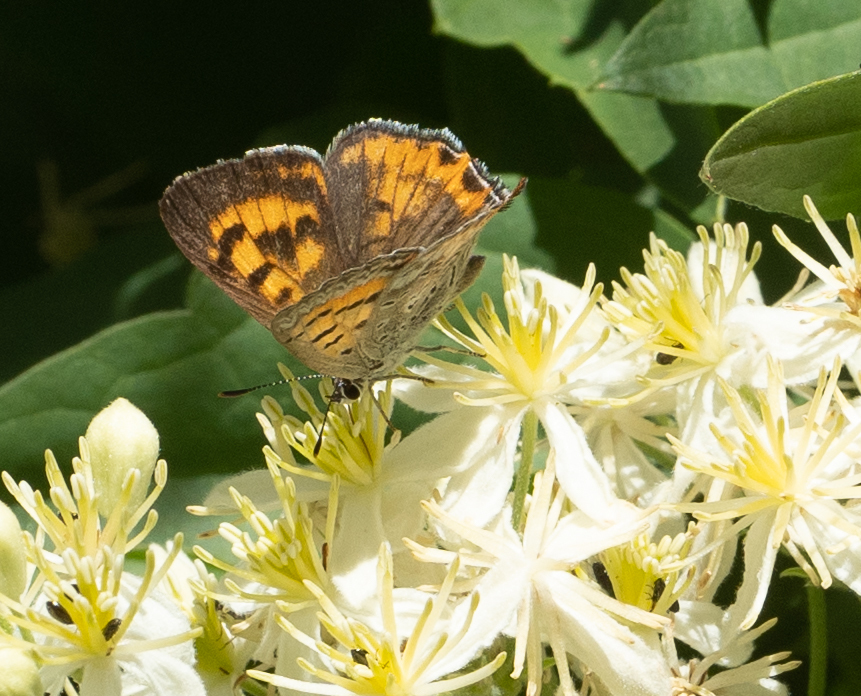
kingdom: Animalia
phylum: Arthropoda
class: Insecta
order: Lepidoptera
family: Lycaenidae
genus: Tharsalea
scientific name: Tharsalea arota
